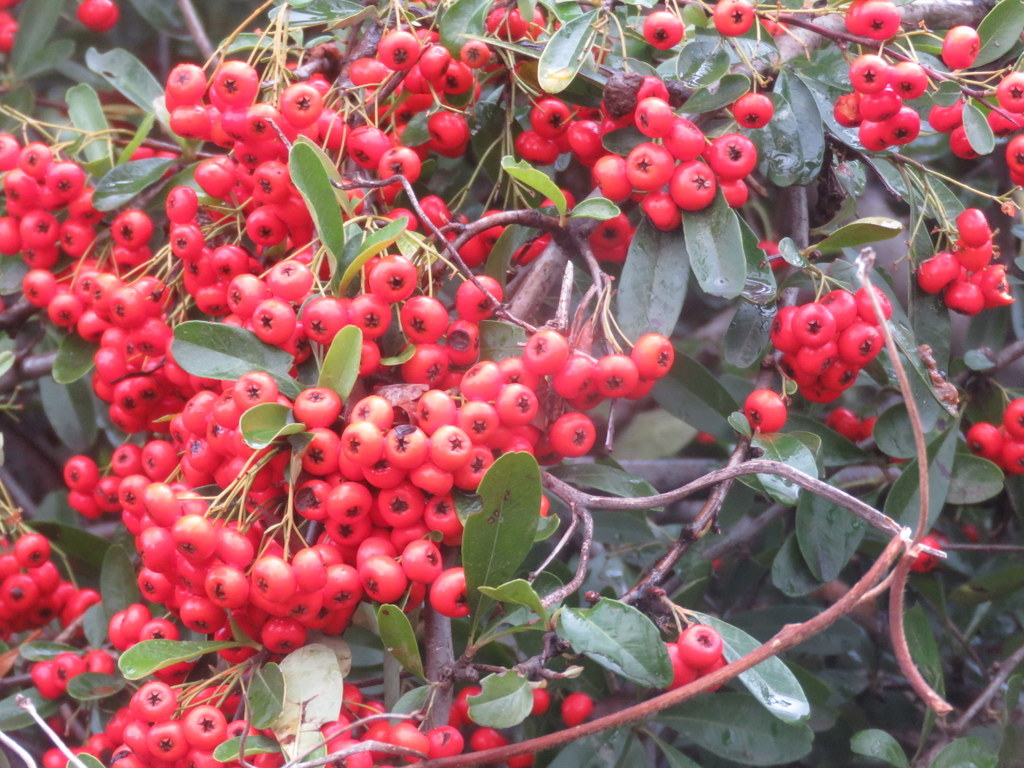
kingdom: Plantae
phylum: Tracheophyta
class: Magnoliopsida
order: Rosales
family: Rosaceae
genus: Pyracantha
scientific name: Pyracantha coccinea
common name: Firethorn
